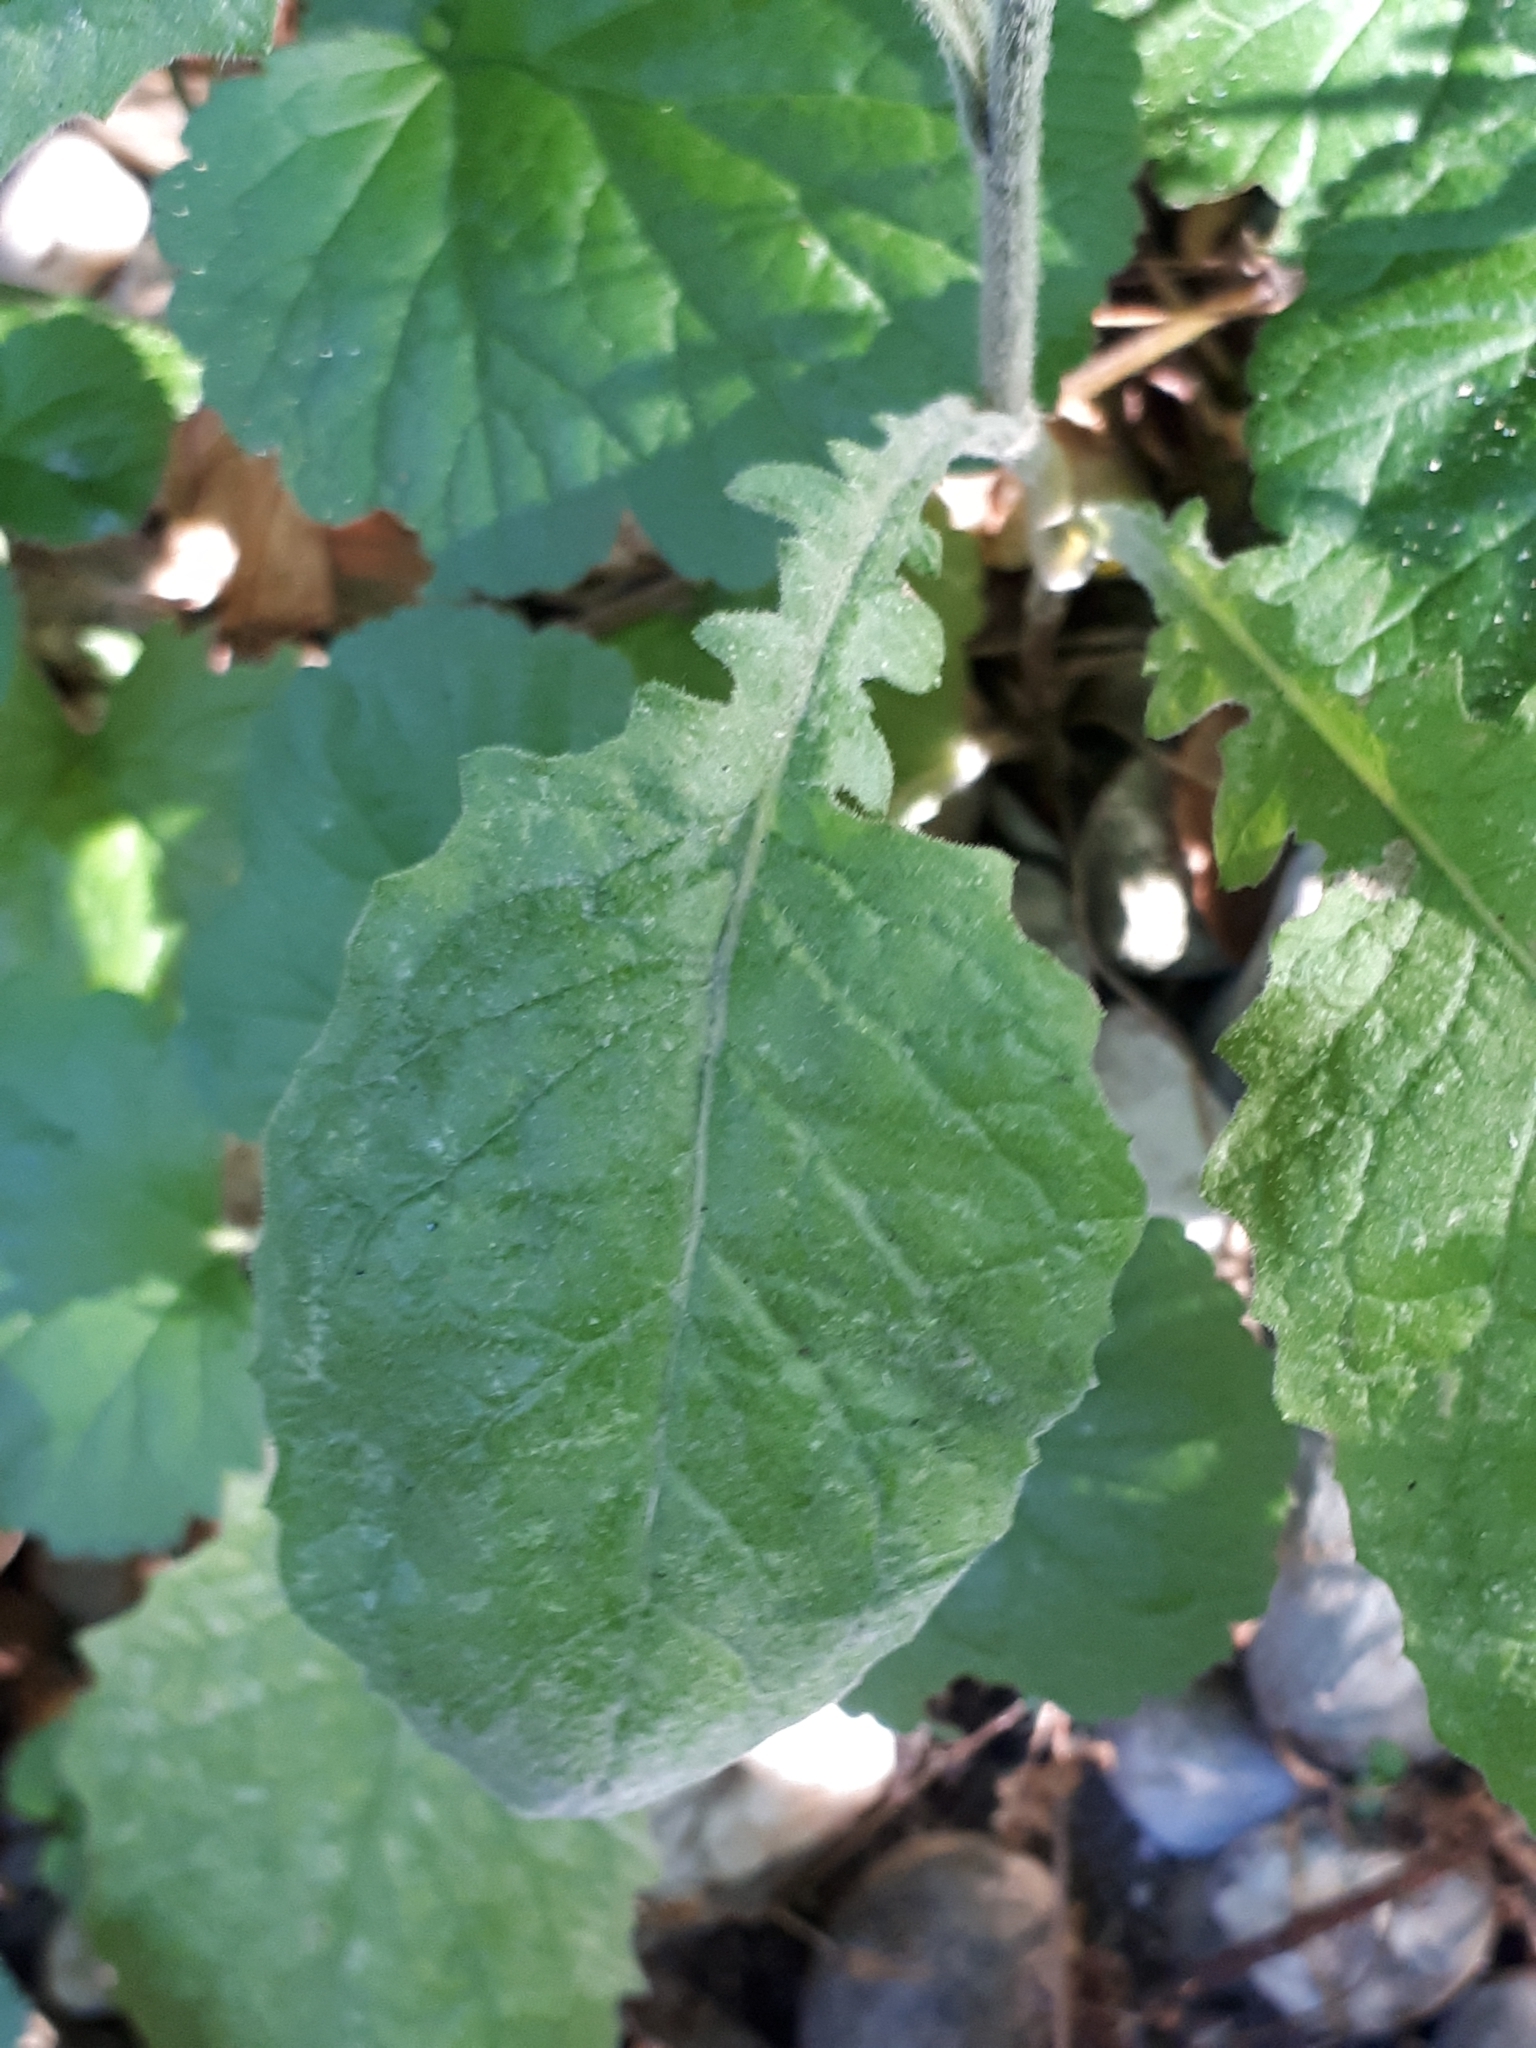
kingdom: Plantae
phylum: Tracheophyta
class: Magnoliopsida
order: Asterales
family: Asteraceae
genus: Lapsana
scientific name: Lapsana communis
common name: Nipplewort
